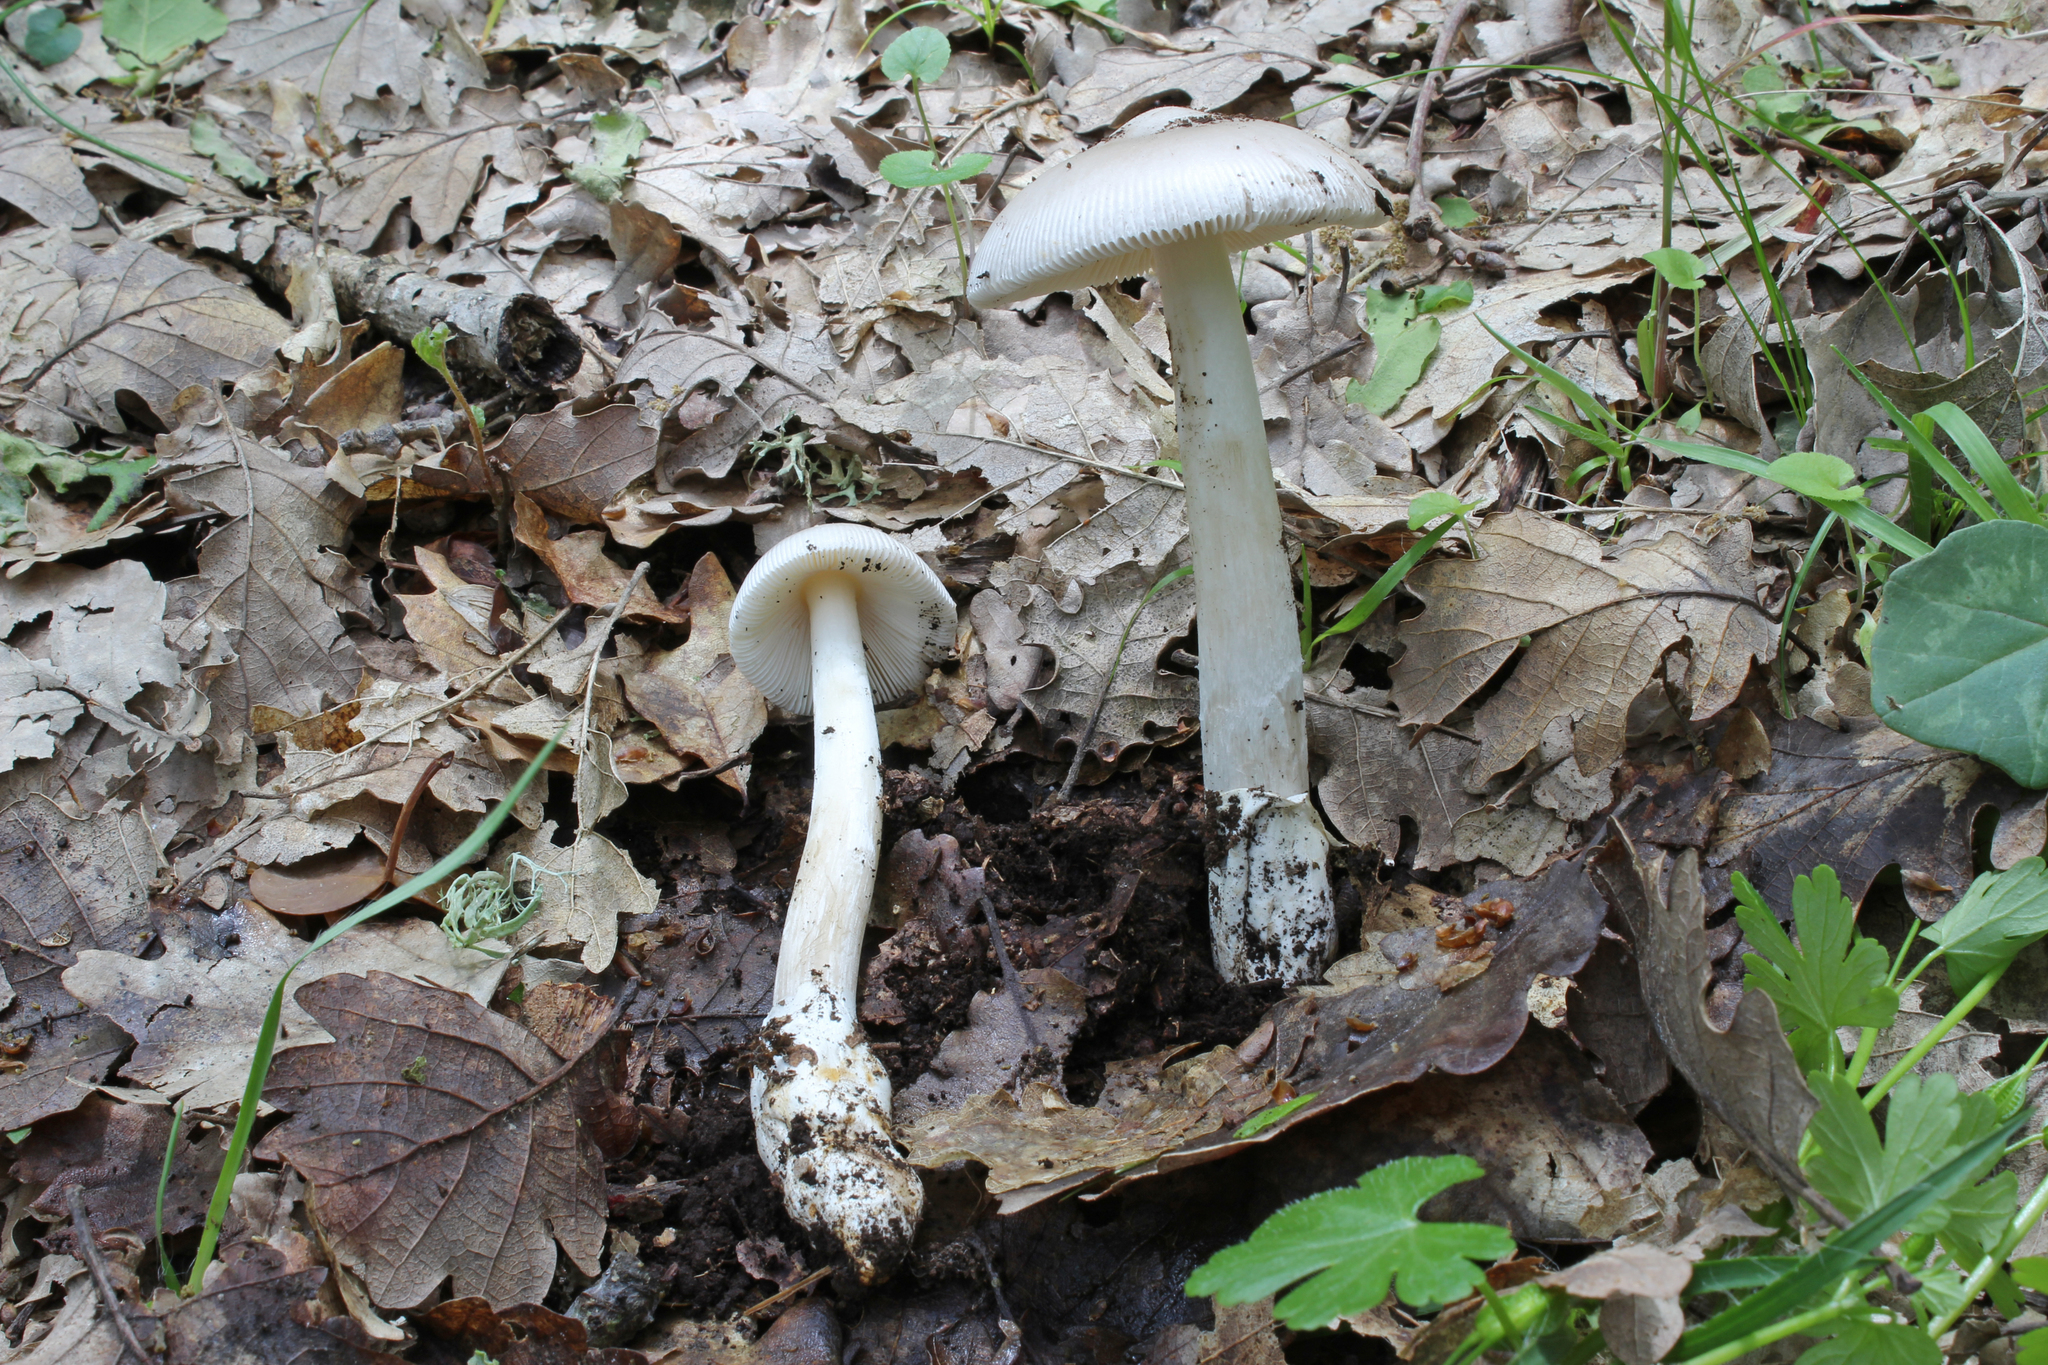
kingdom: Fungi
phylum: Basidiomycota
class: Agaricomycetes
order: Agaricales
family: Amanitaceae
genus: Amanita
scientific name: Amanita lividopallescens
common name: Pale grisette
